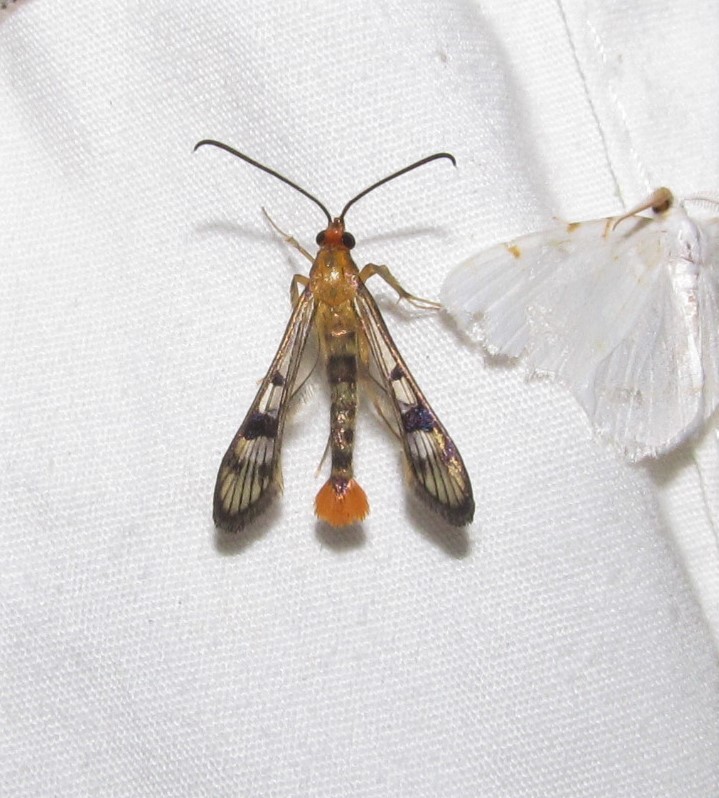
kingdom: Animalia
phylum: Arthropoda
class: Insecta
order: Lepidoptera
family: Sesiidae
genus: Synanthedon
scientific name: Synanthedon acerni
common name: Maple callus borer moth
